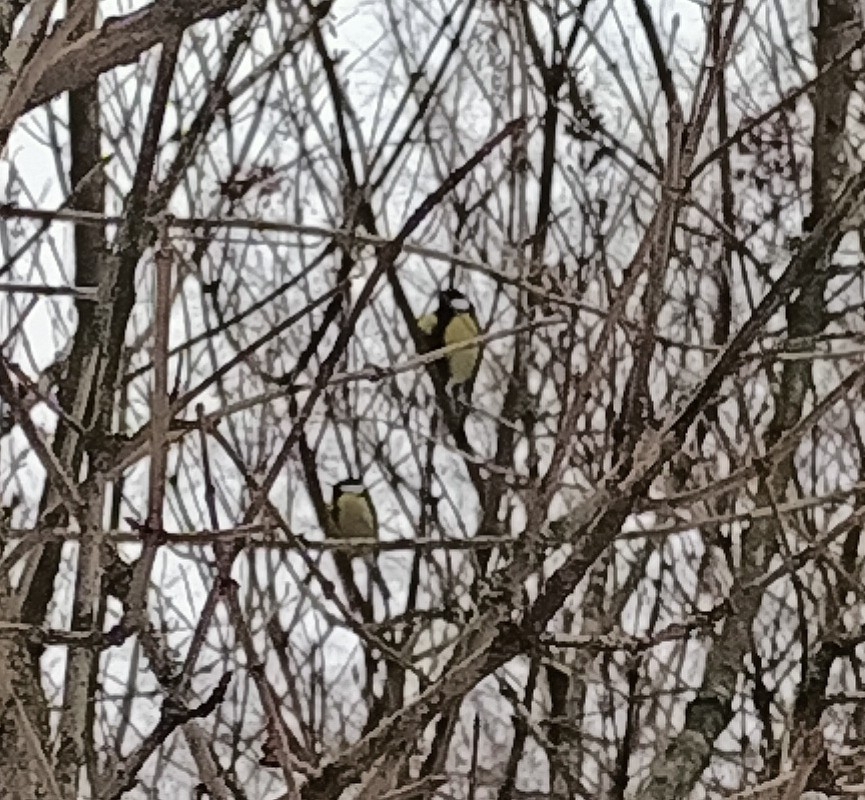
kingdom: Animalia
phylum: Chordata
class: Aves
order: Passeriformes
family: Paridae
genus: Parus
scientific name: Parus major
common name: Great tit
